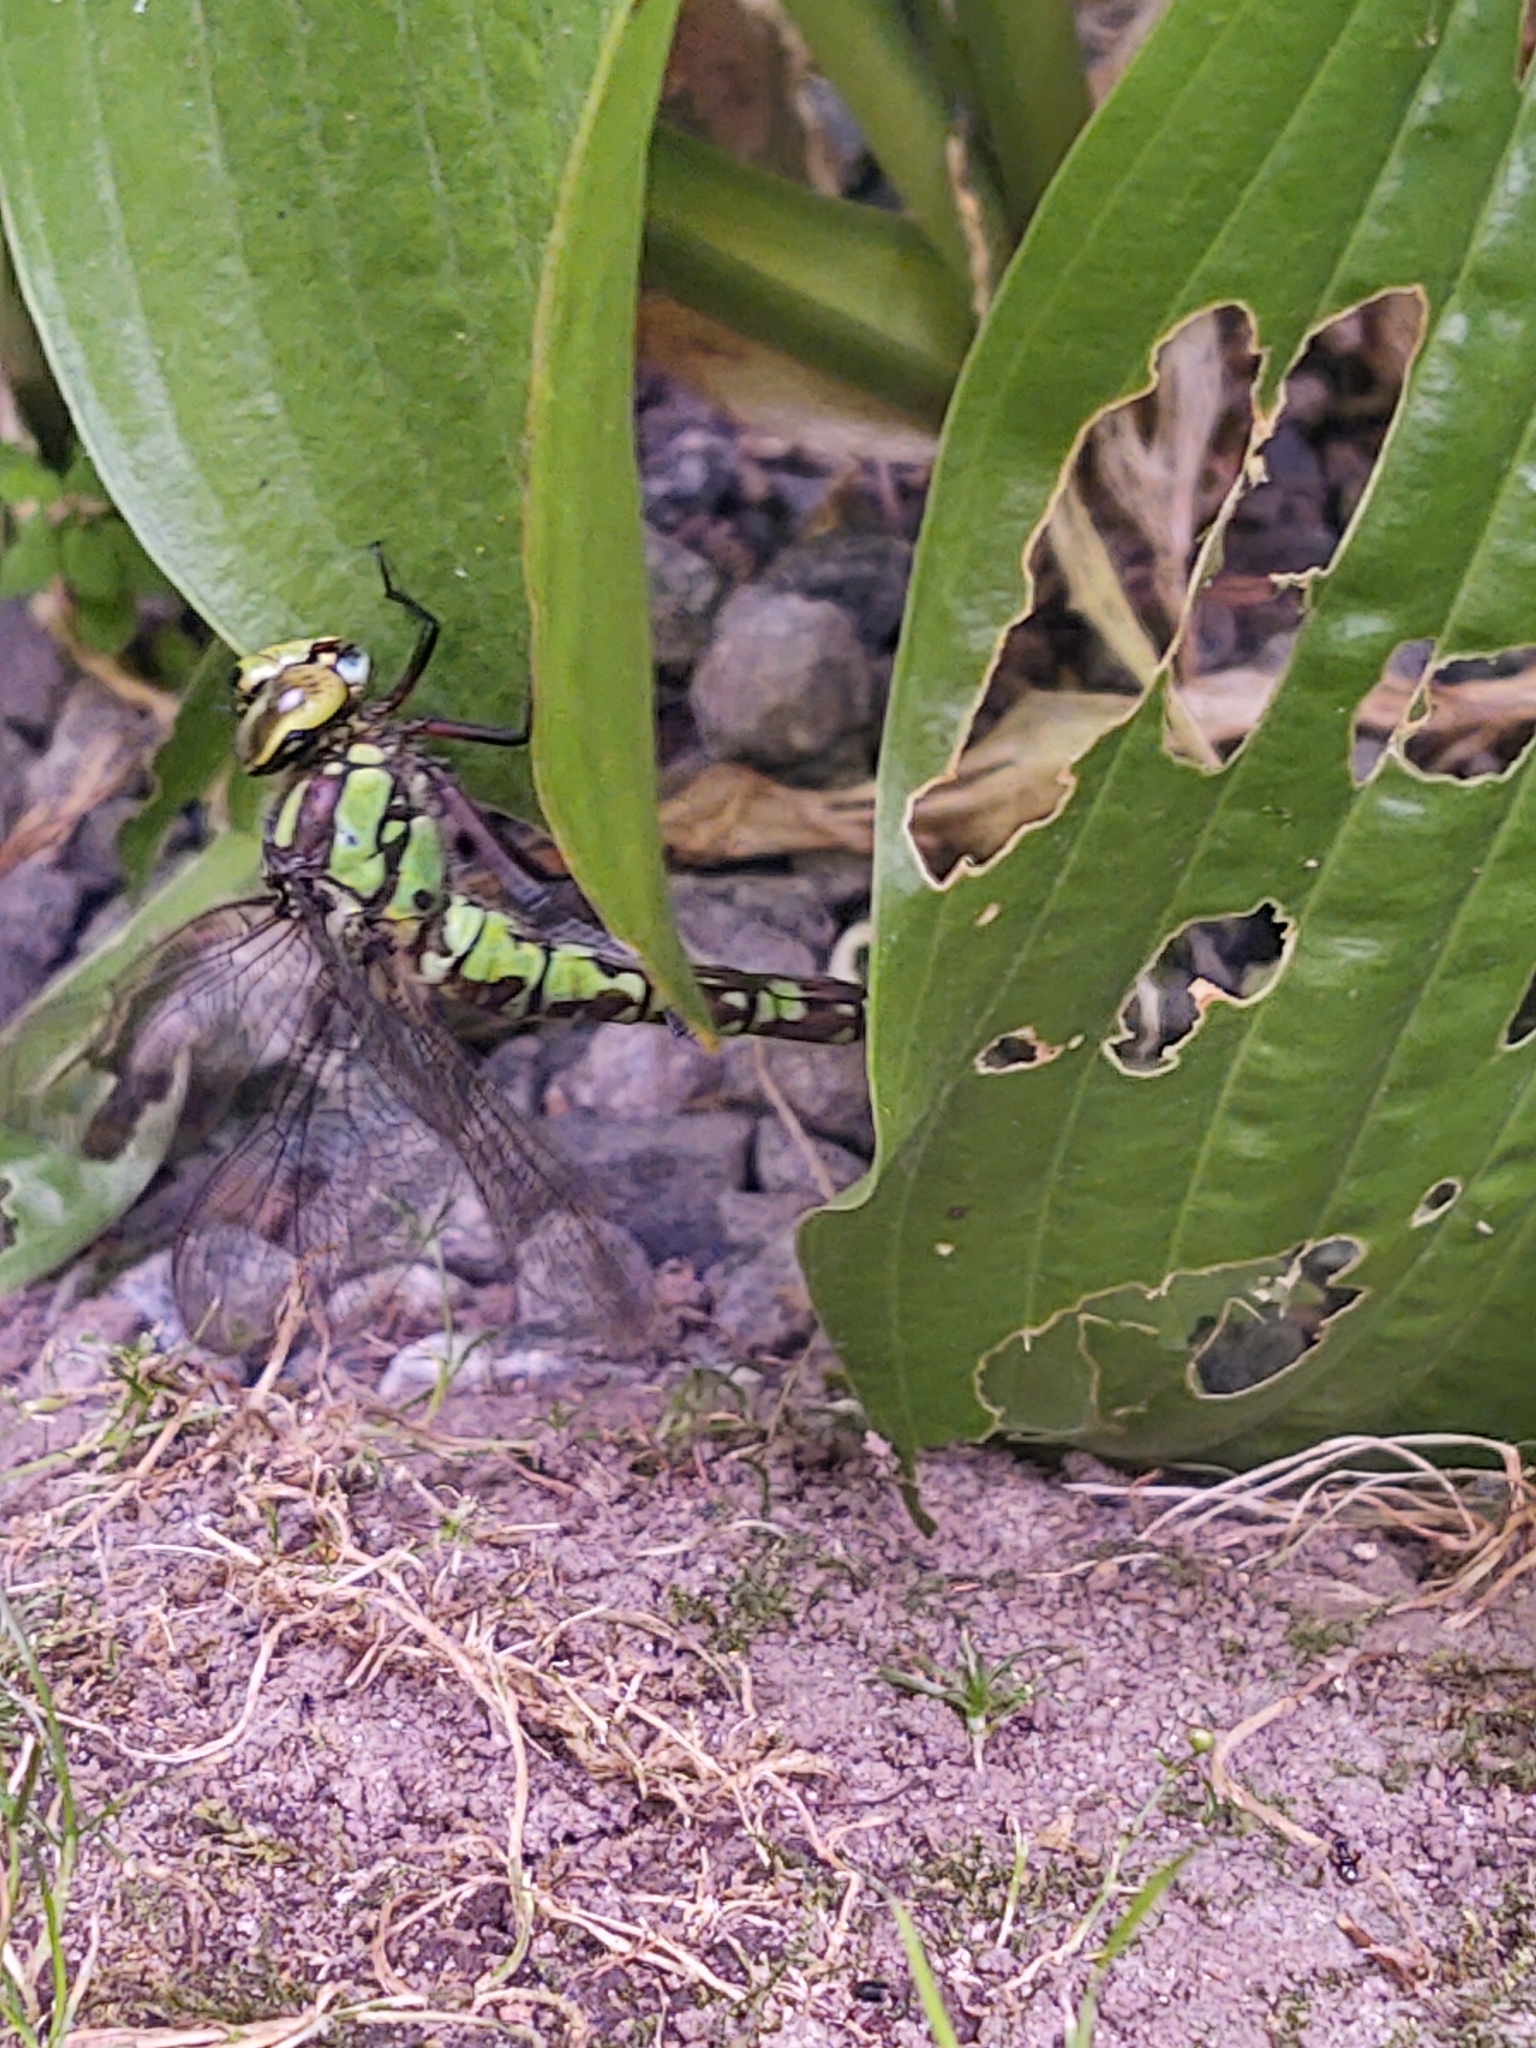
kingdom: Animalia
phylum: Arthropoda
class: Insecta
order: Odonata
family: Aeshnidae
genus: Aeshna
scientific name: Aeshna cyanea
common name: Southern hawker
